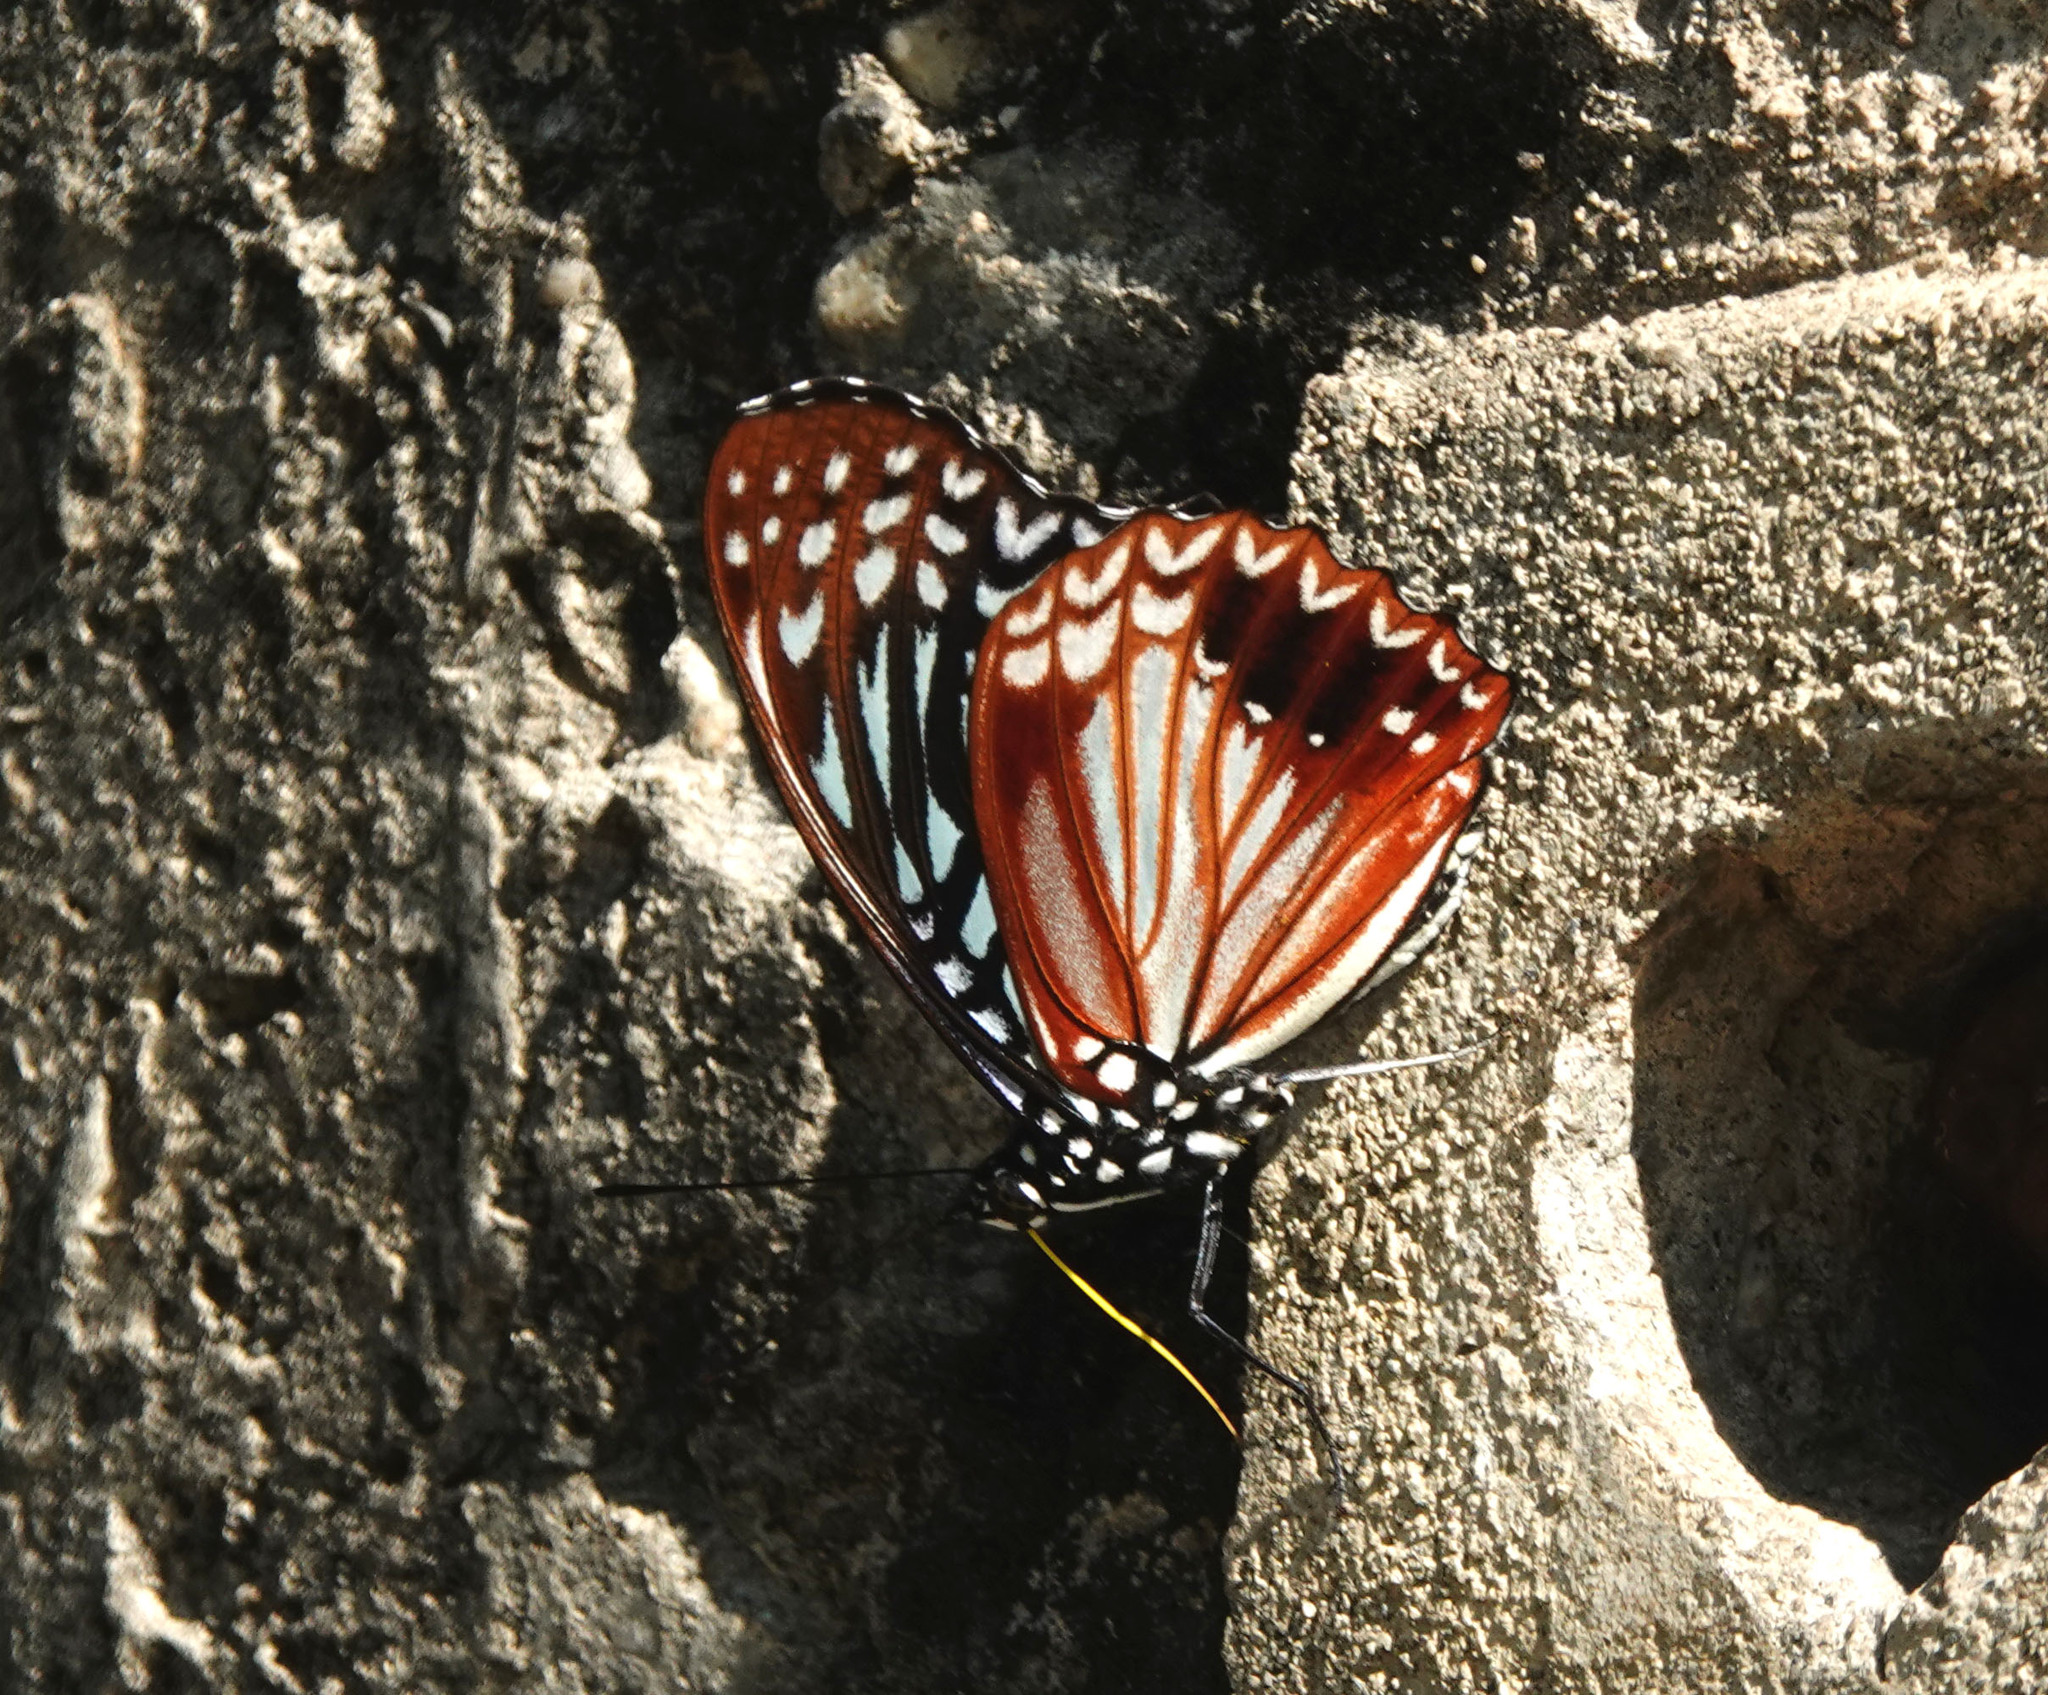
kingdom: Animalia
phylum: Arthropoda
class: Insecta
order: Lepidoptera
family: Nymphalidae
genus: Hestinalis
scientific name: Hestinalis nama
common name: Circe
